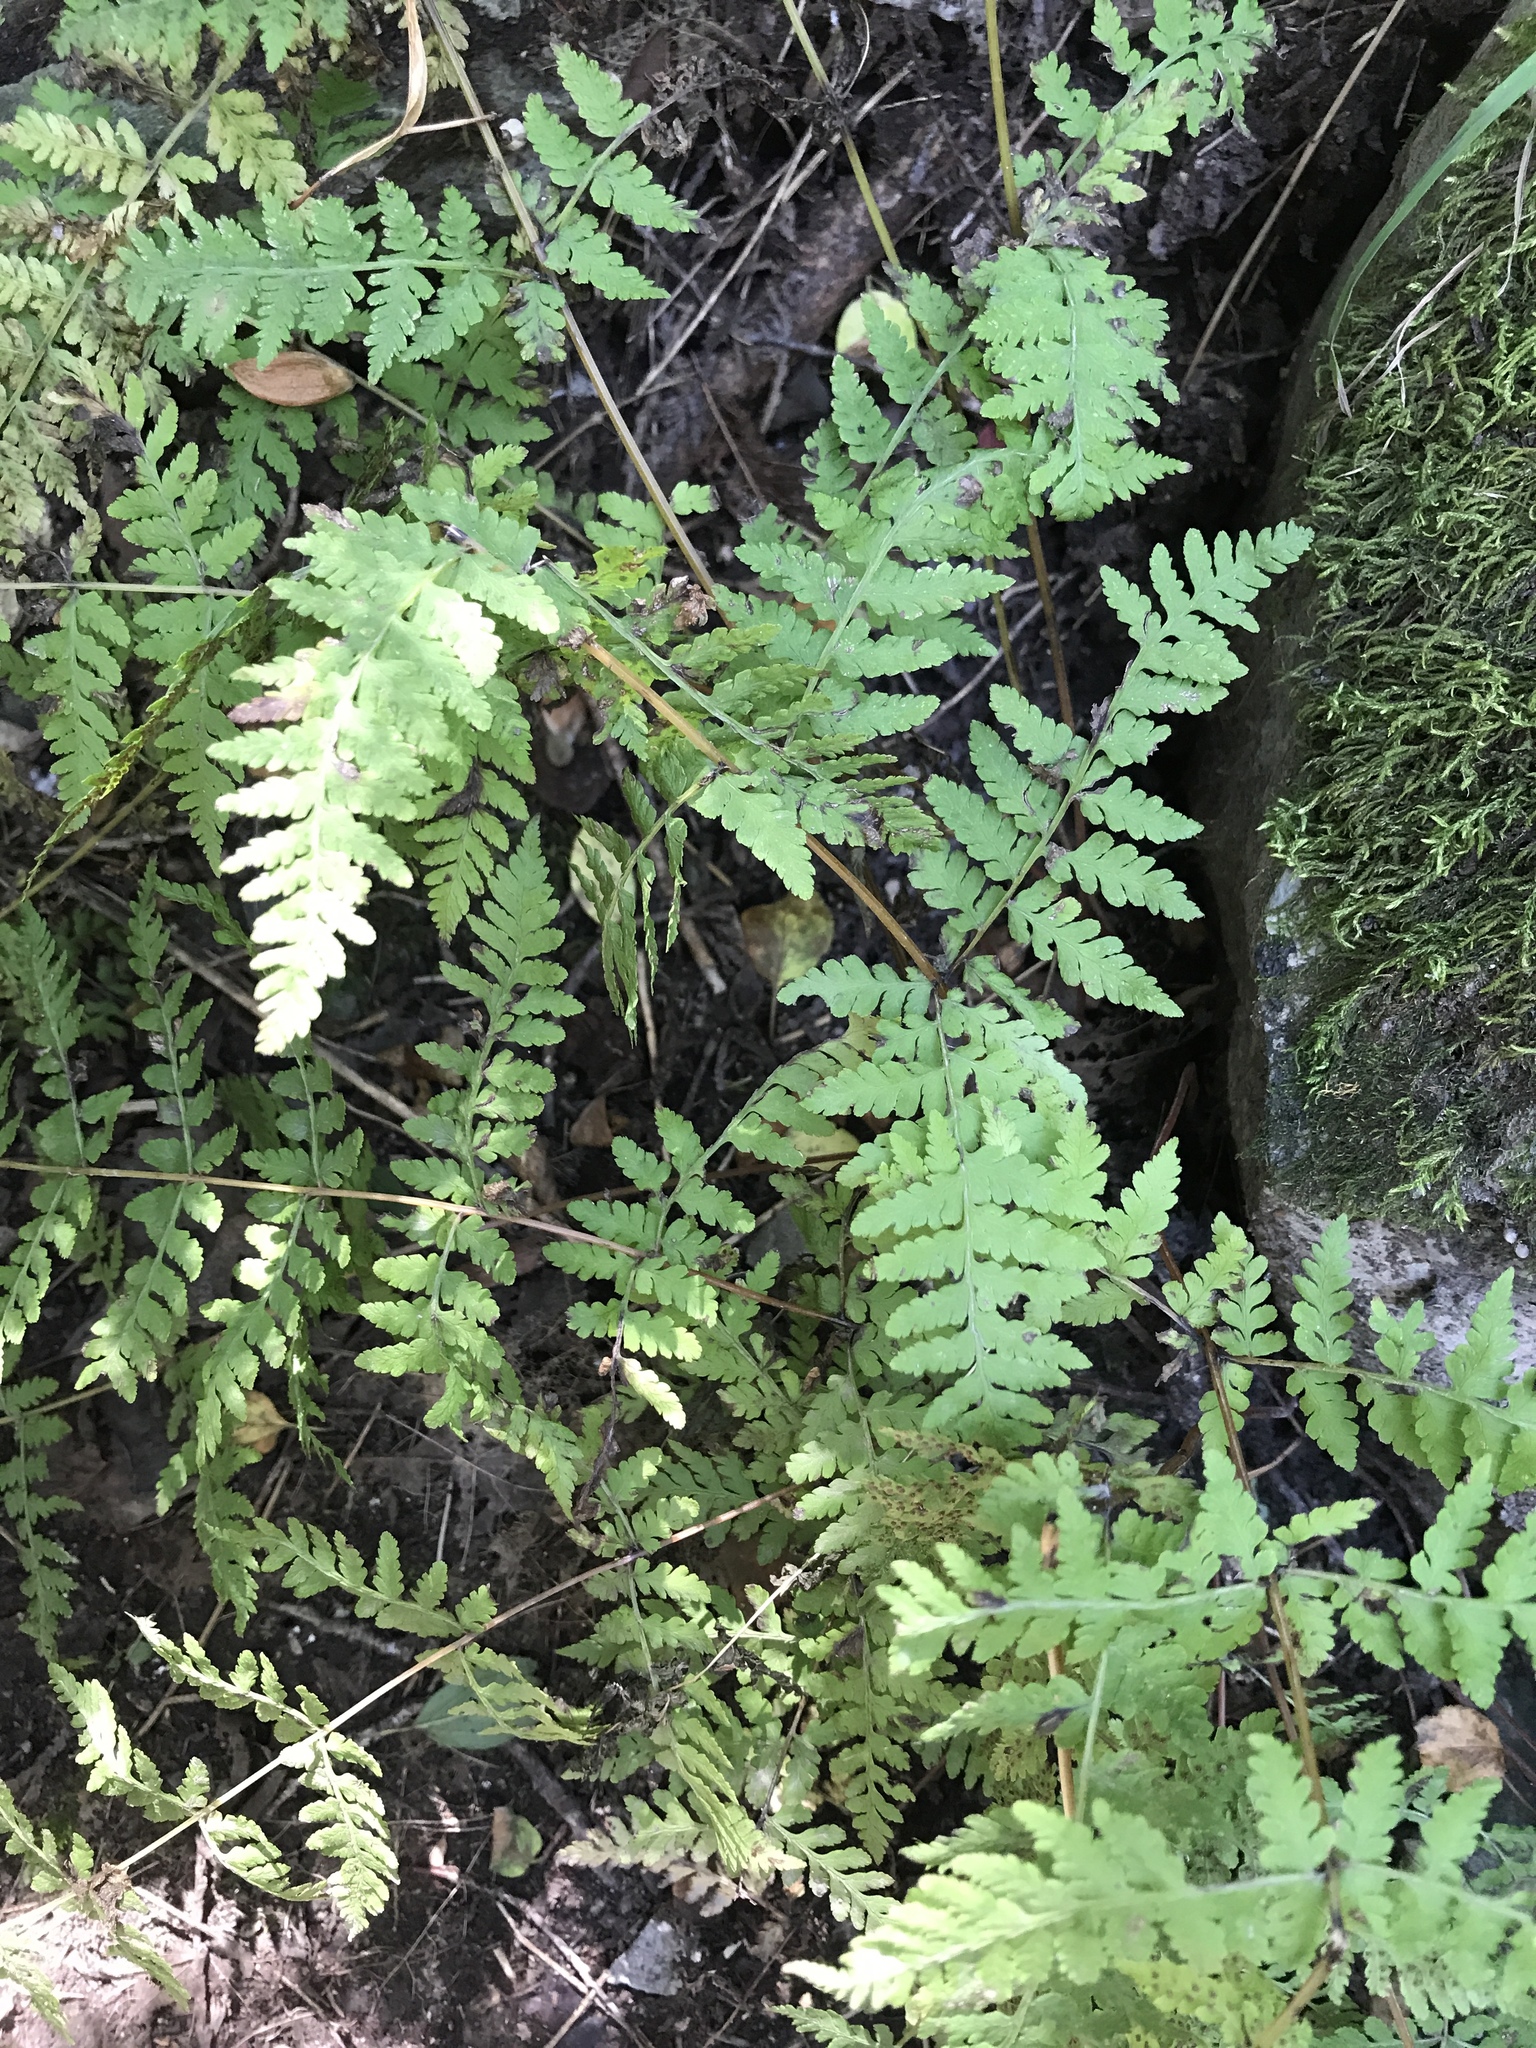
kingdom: Plantae
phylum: Tracheophyta
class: Polypodiopsida
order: Polypodiales
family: Cystopteridaceae
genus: Cystopteris
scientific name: Cystopteris bulbifera
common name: Bulblet bladder fern
